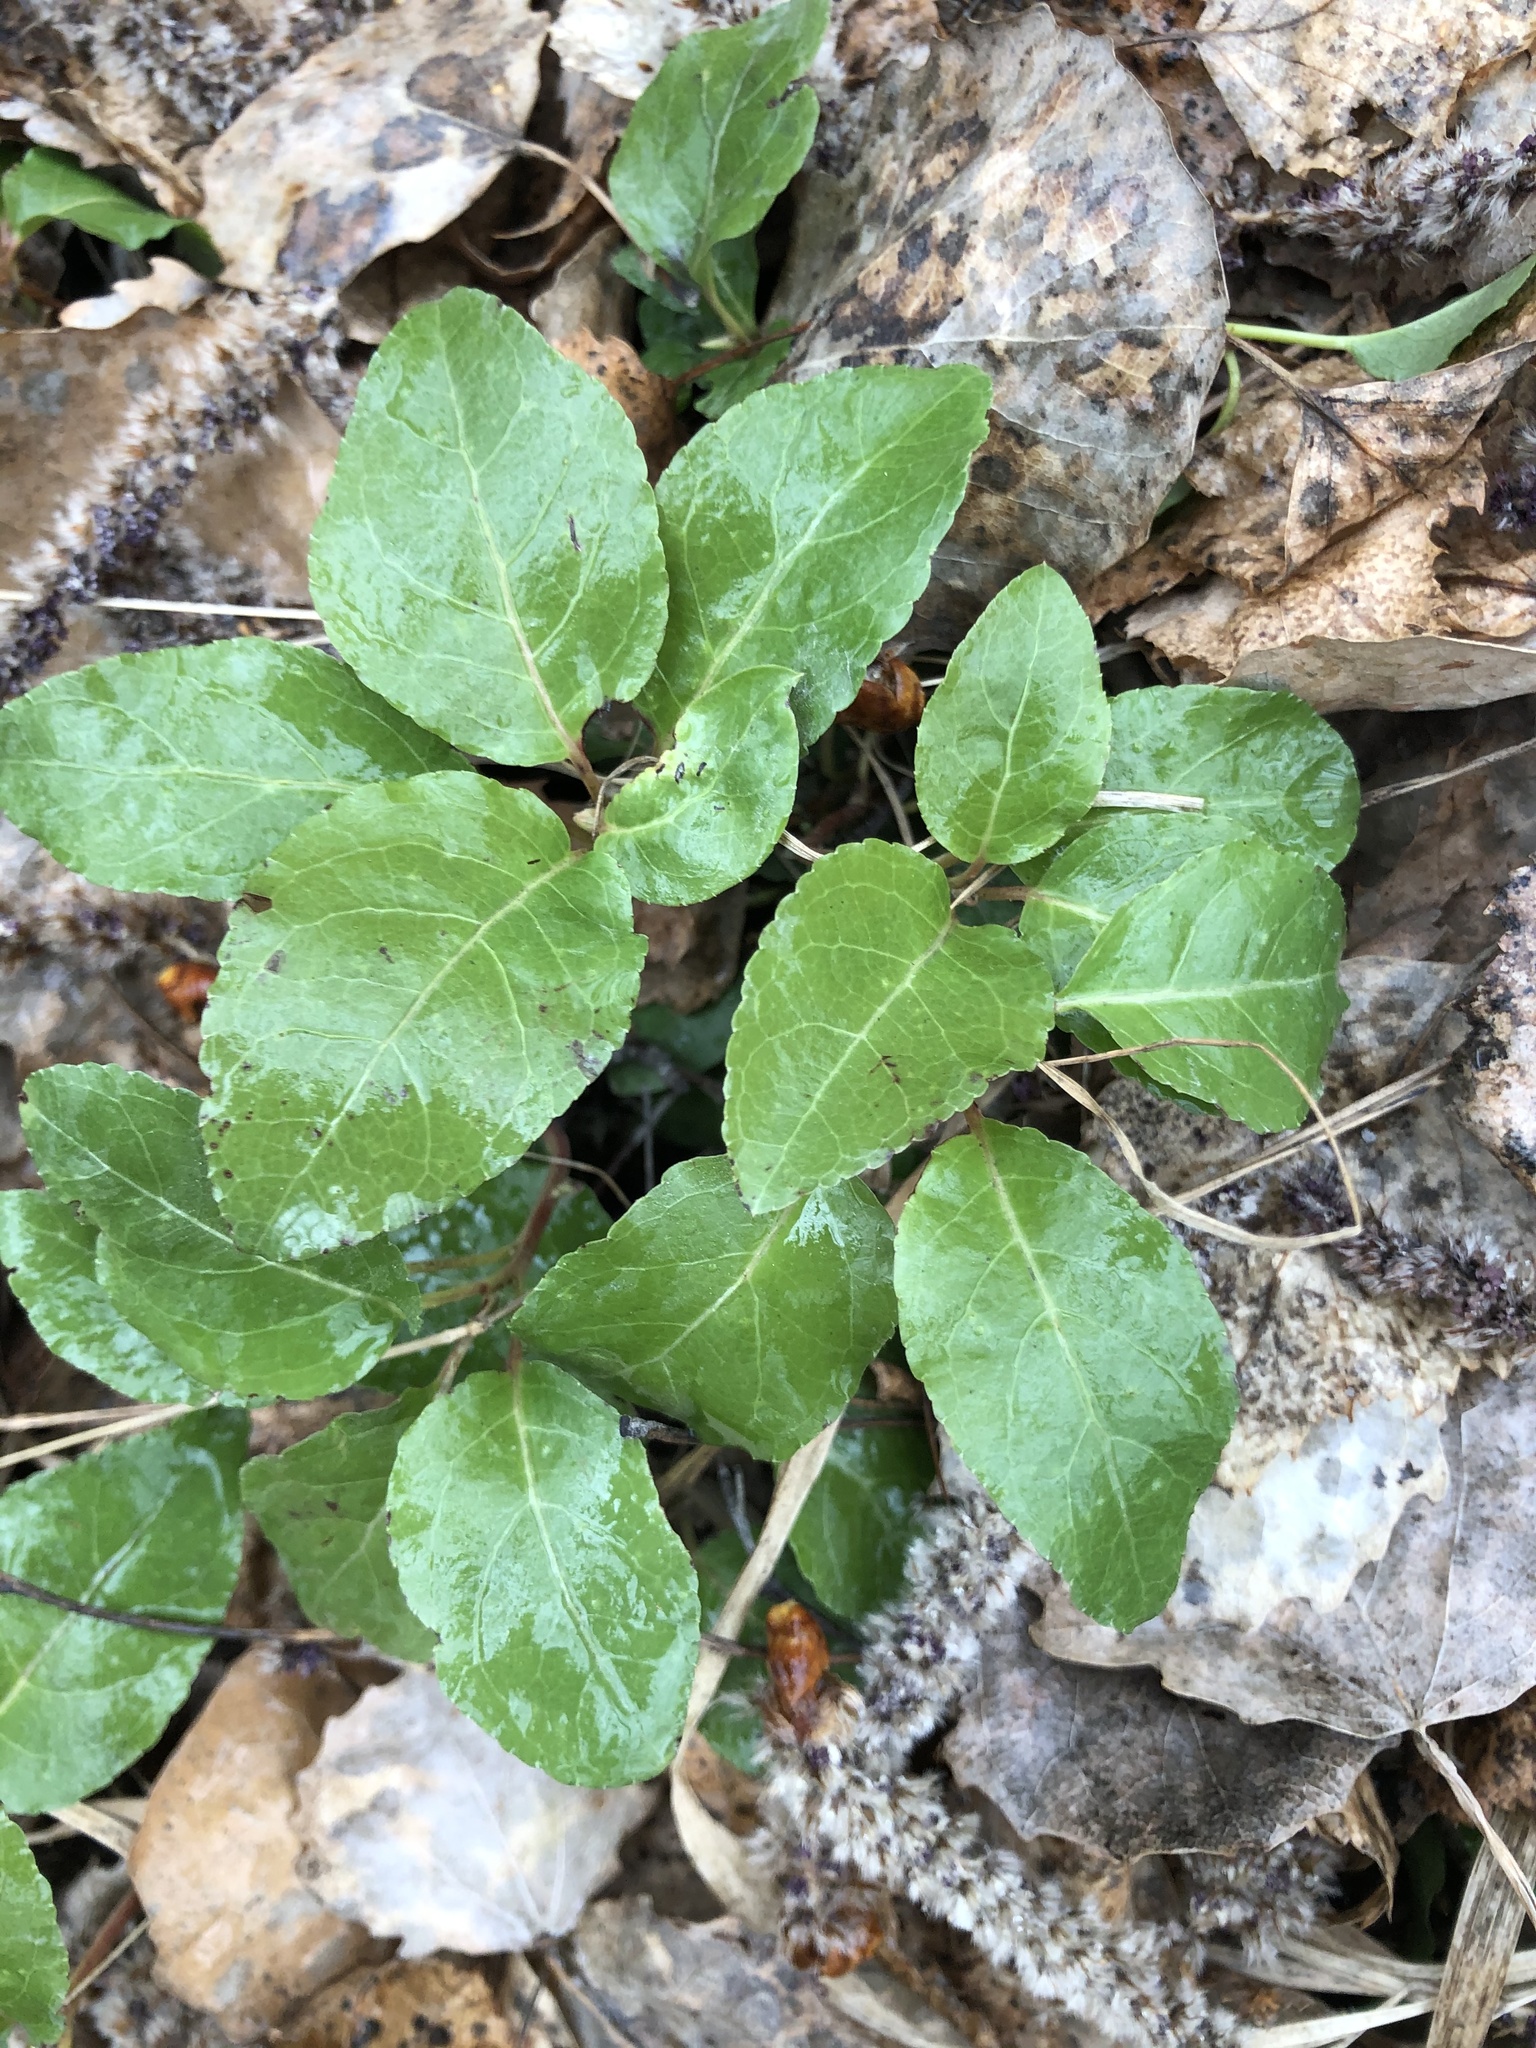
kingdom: Plantae
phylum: Tracheophyta
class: Magnoliopsida
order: Ericales
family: Ericaceae
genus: Orthilia
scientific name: Orthilia secunda
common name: One-sided orthilia
